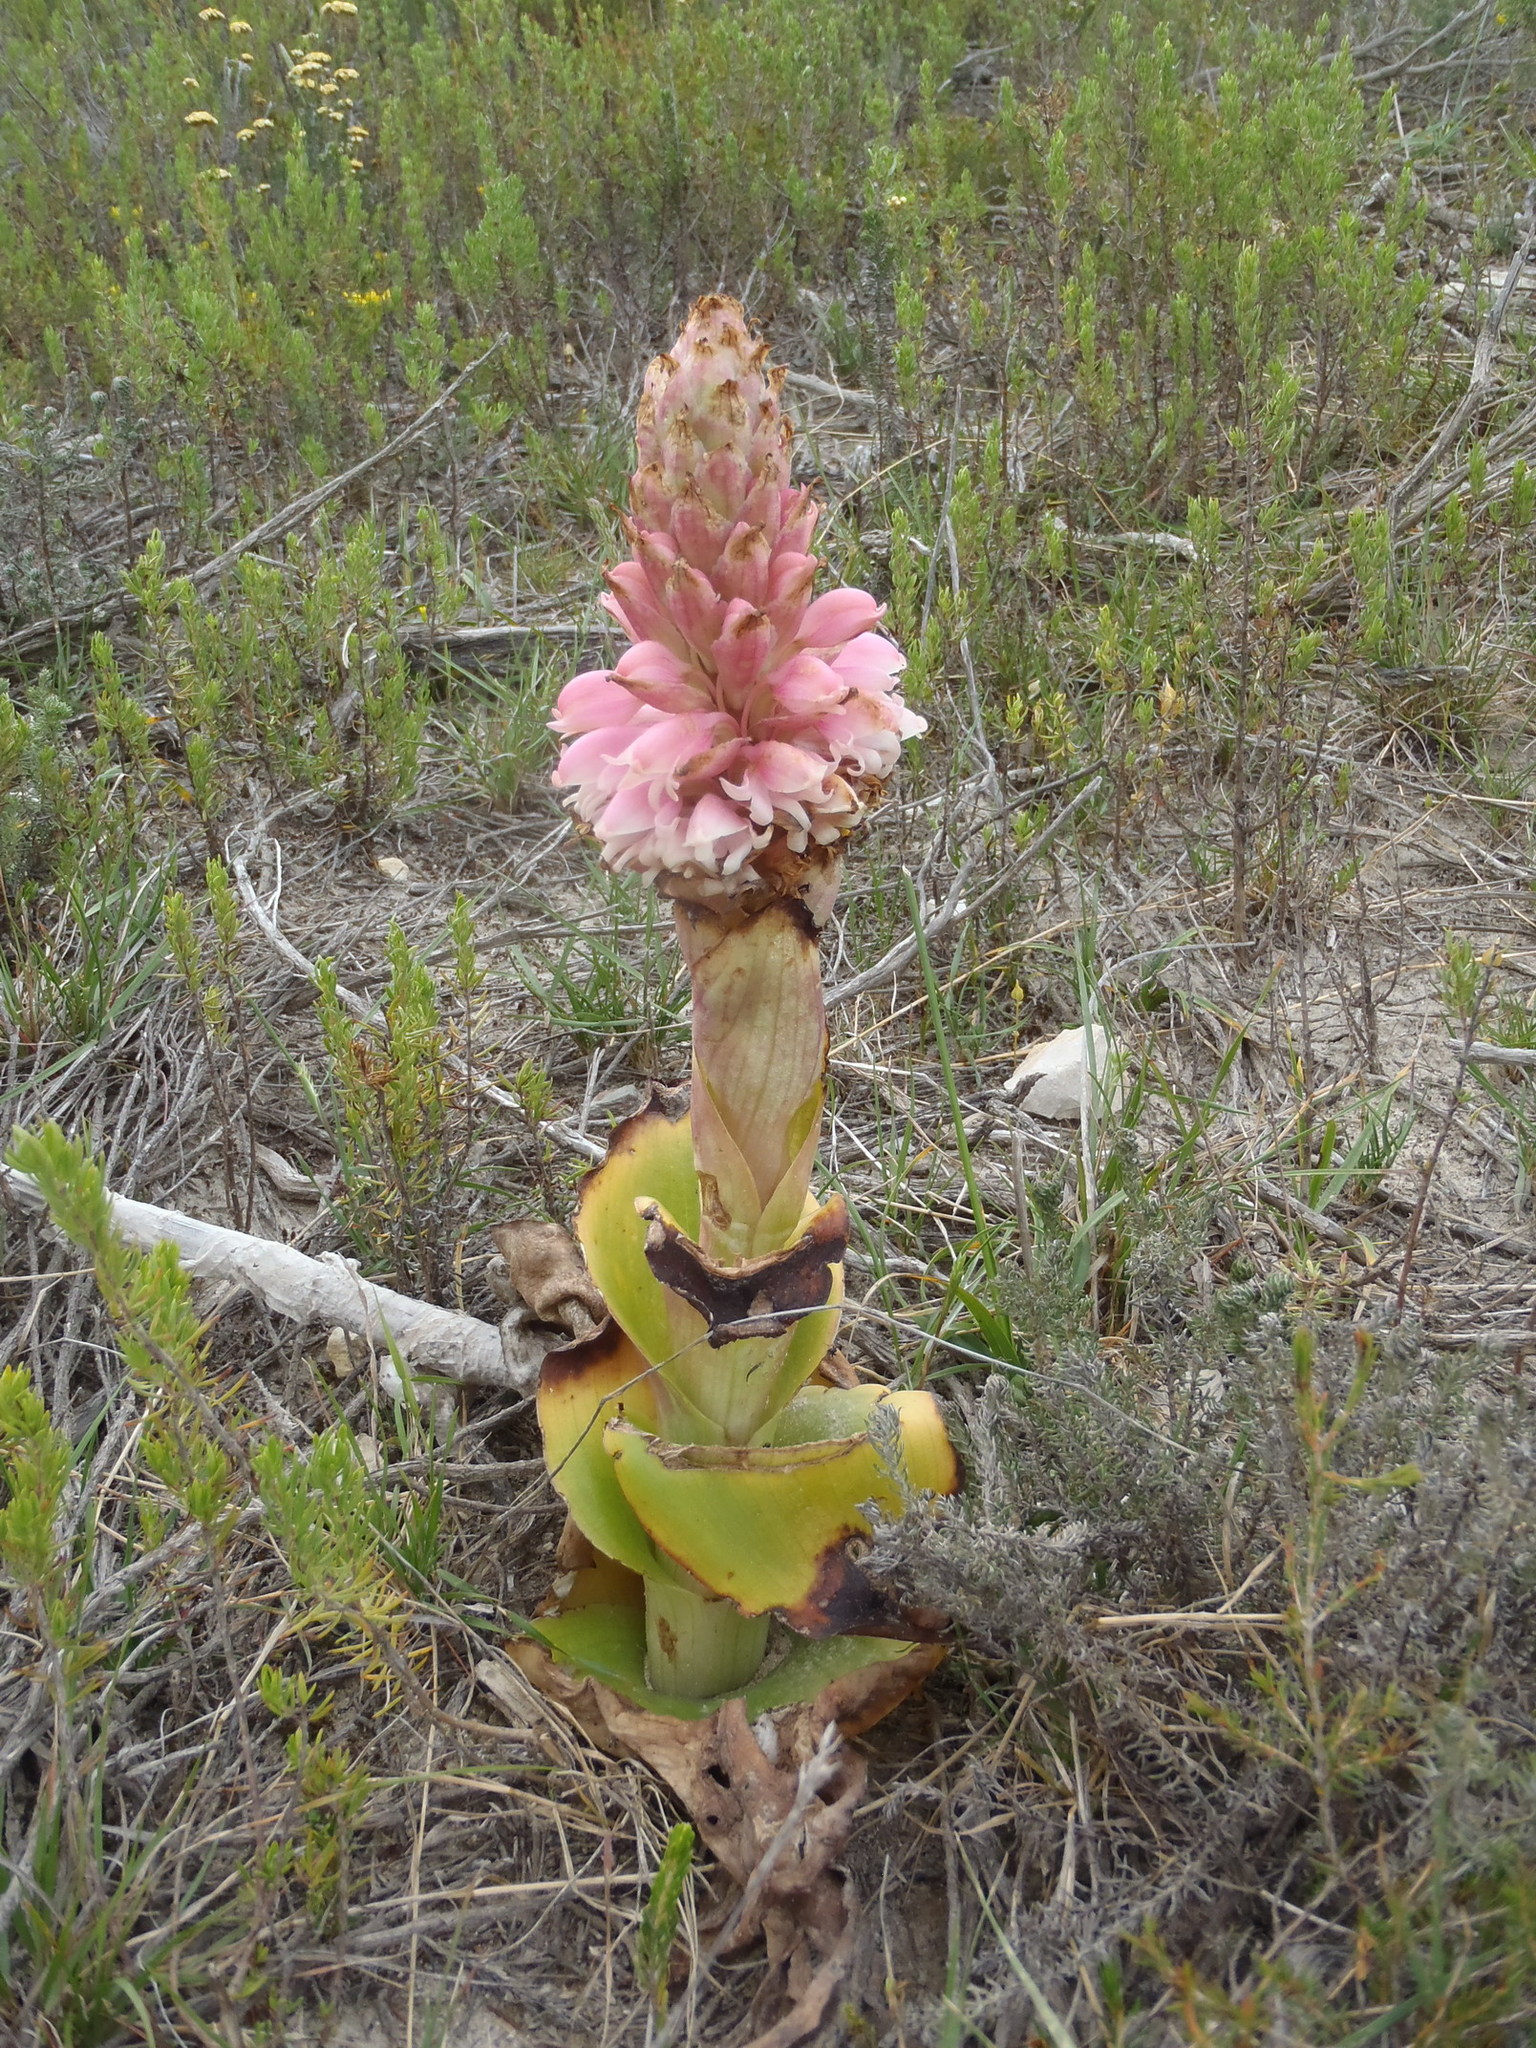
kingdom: Plantae
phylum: Tracheophyta
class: Liliopsida
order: Asparagales
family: Orchidaceae
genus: Satyrium
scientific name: Satyrium carneum
